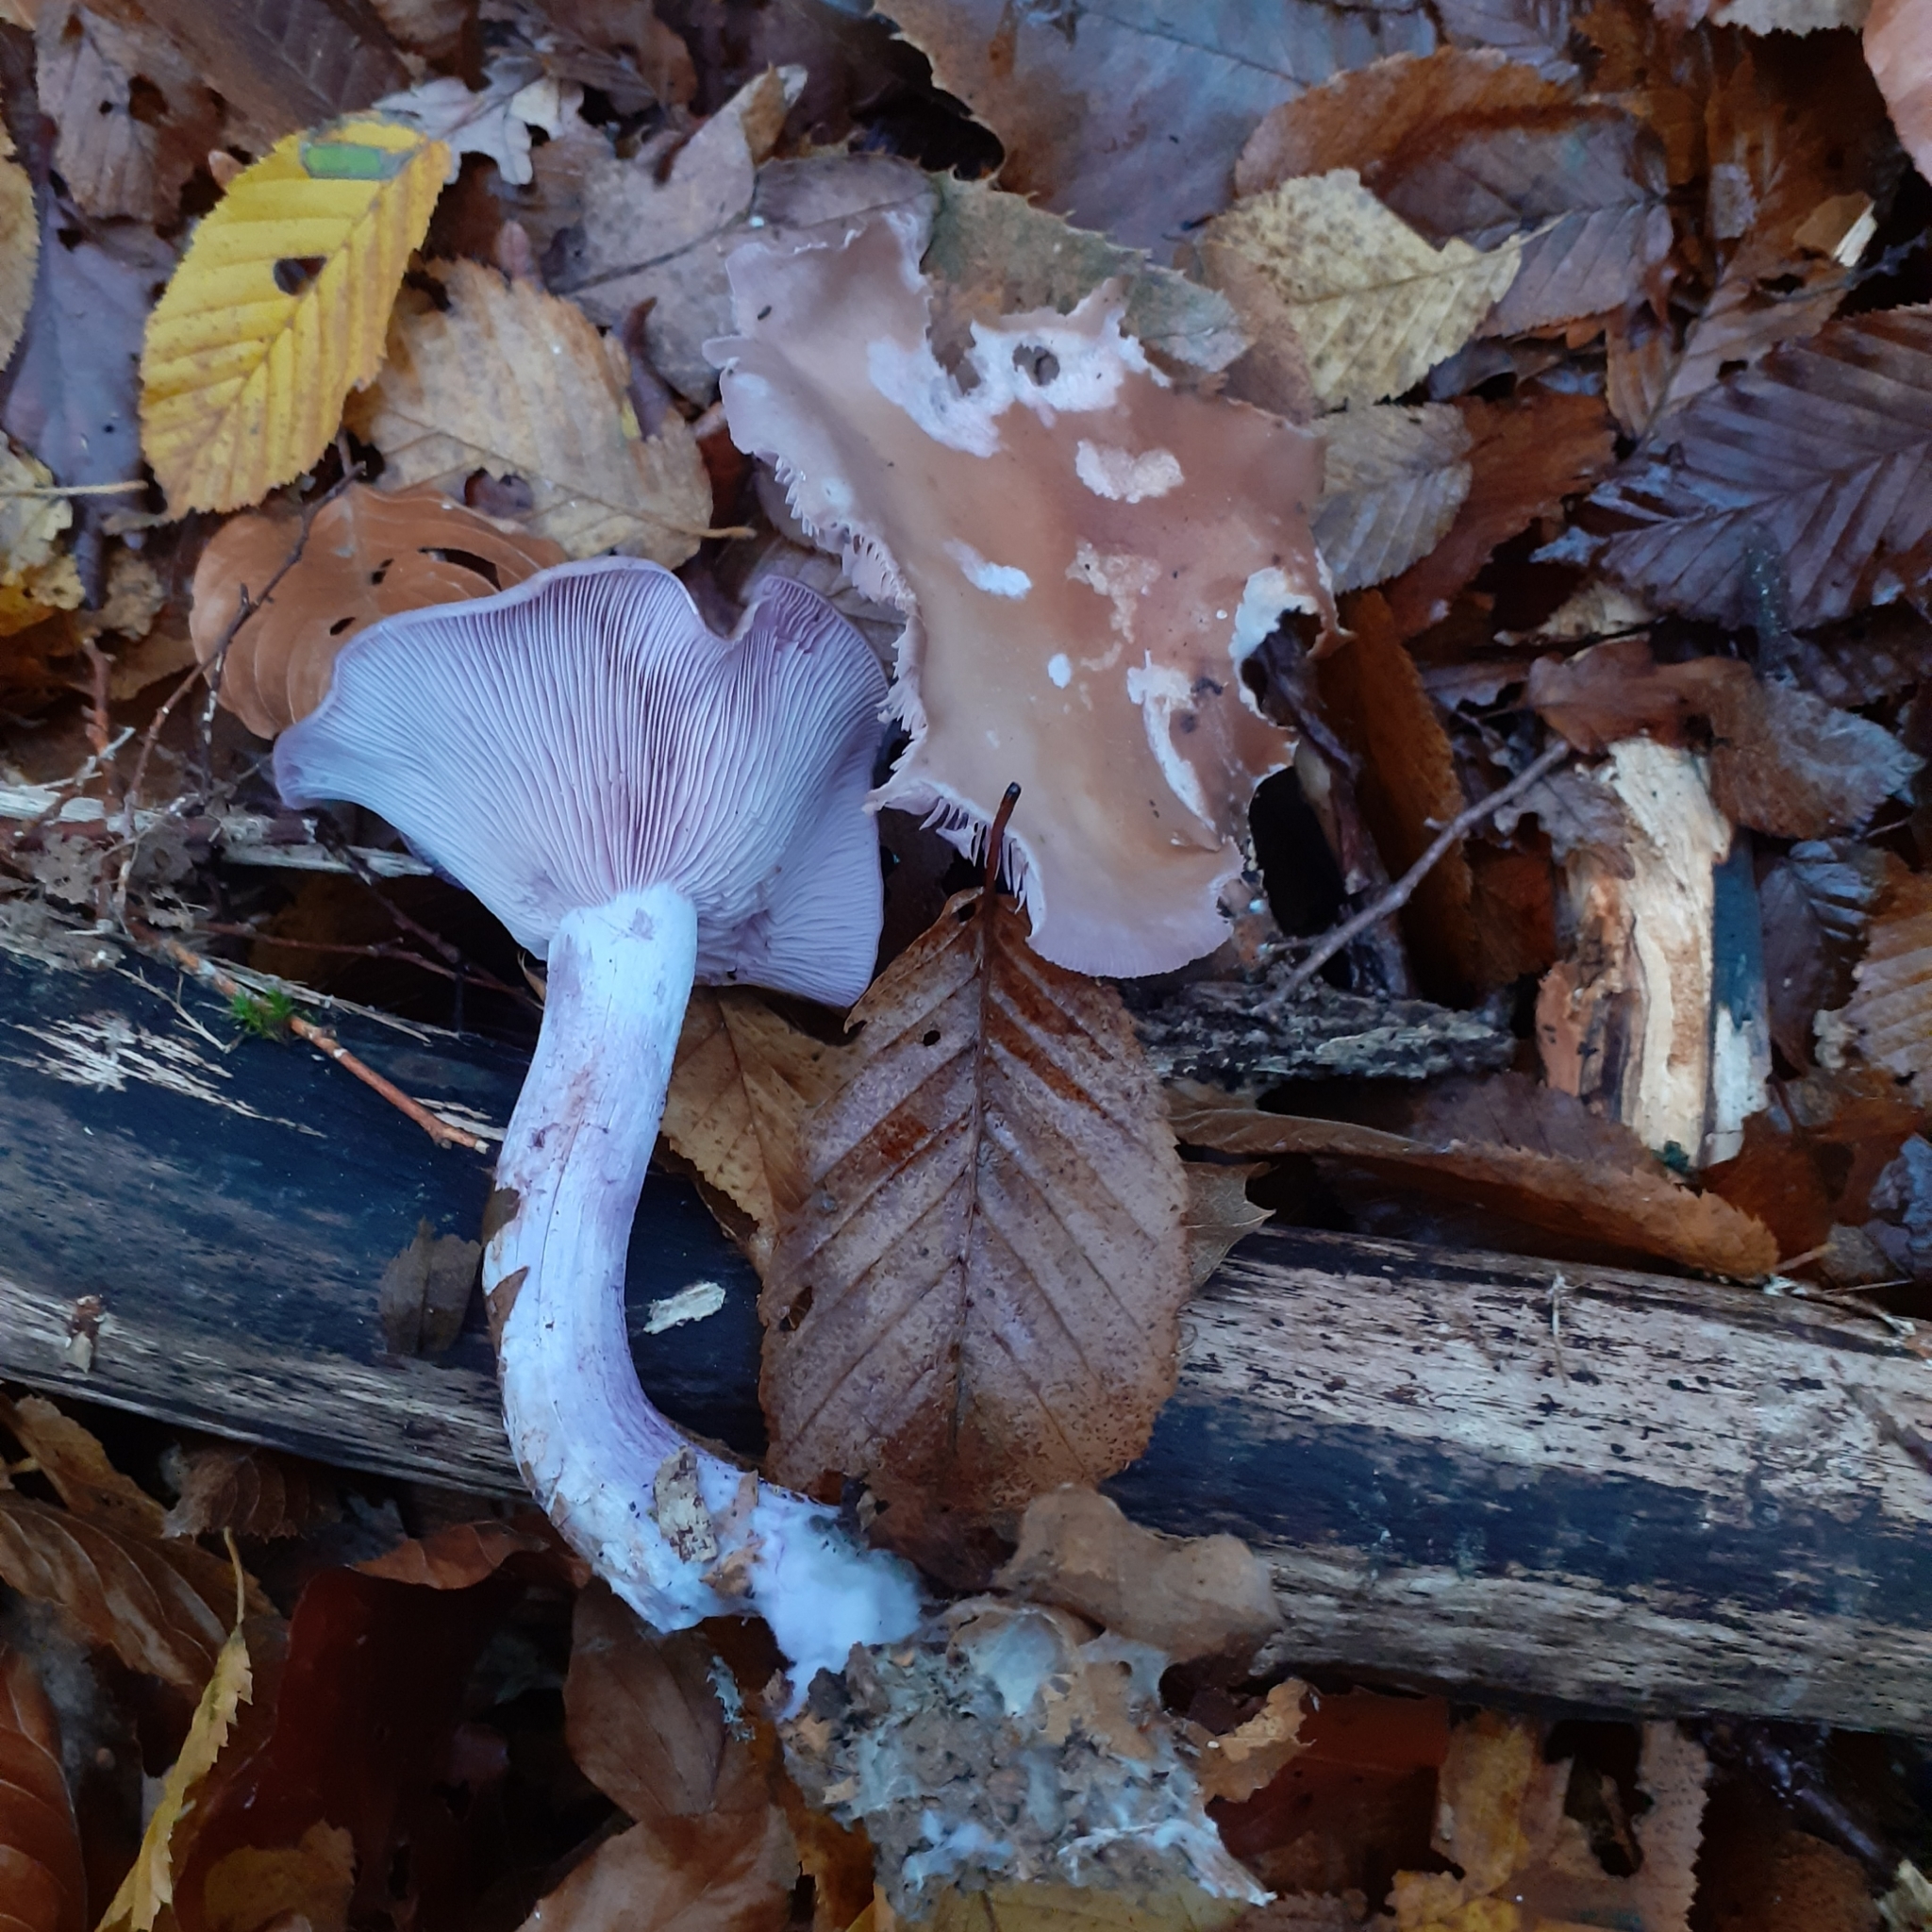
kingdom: Fungi
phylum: Basidiomycota
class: Agaricomycetes
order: Agaricales
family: Tricholomataceae
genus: Collybia
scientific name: Collybia
